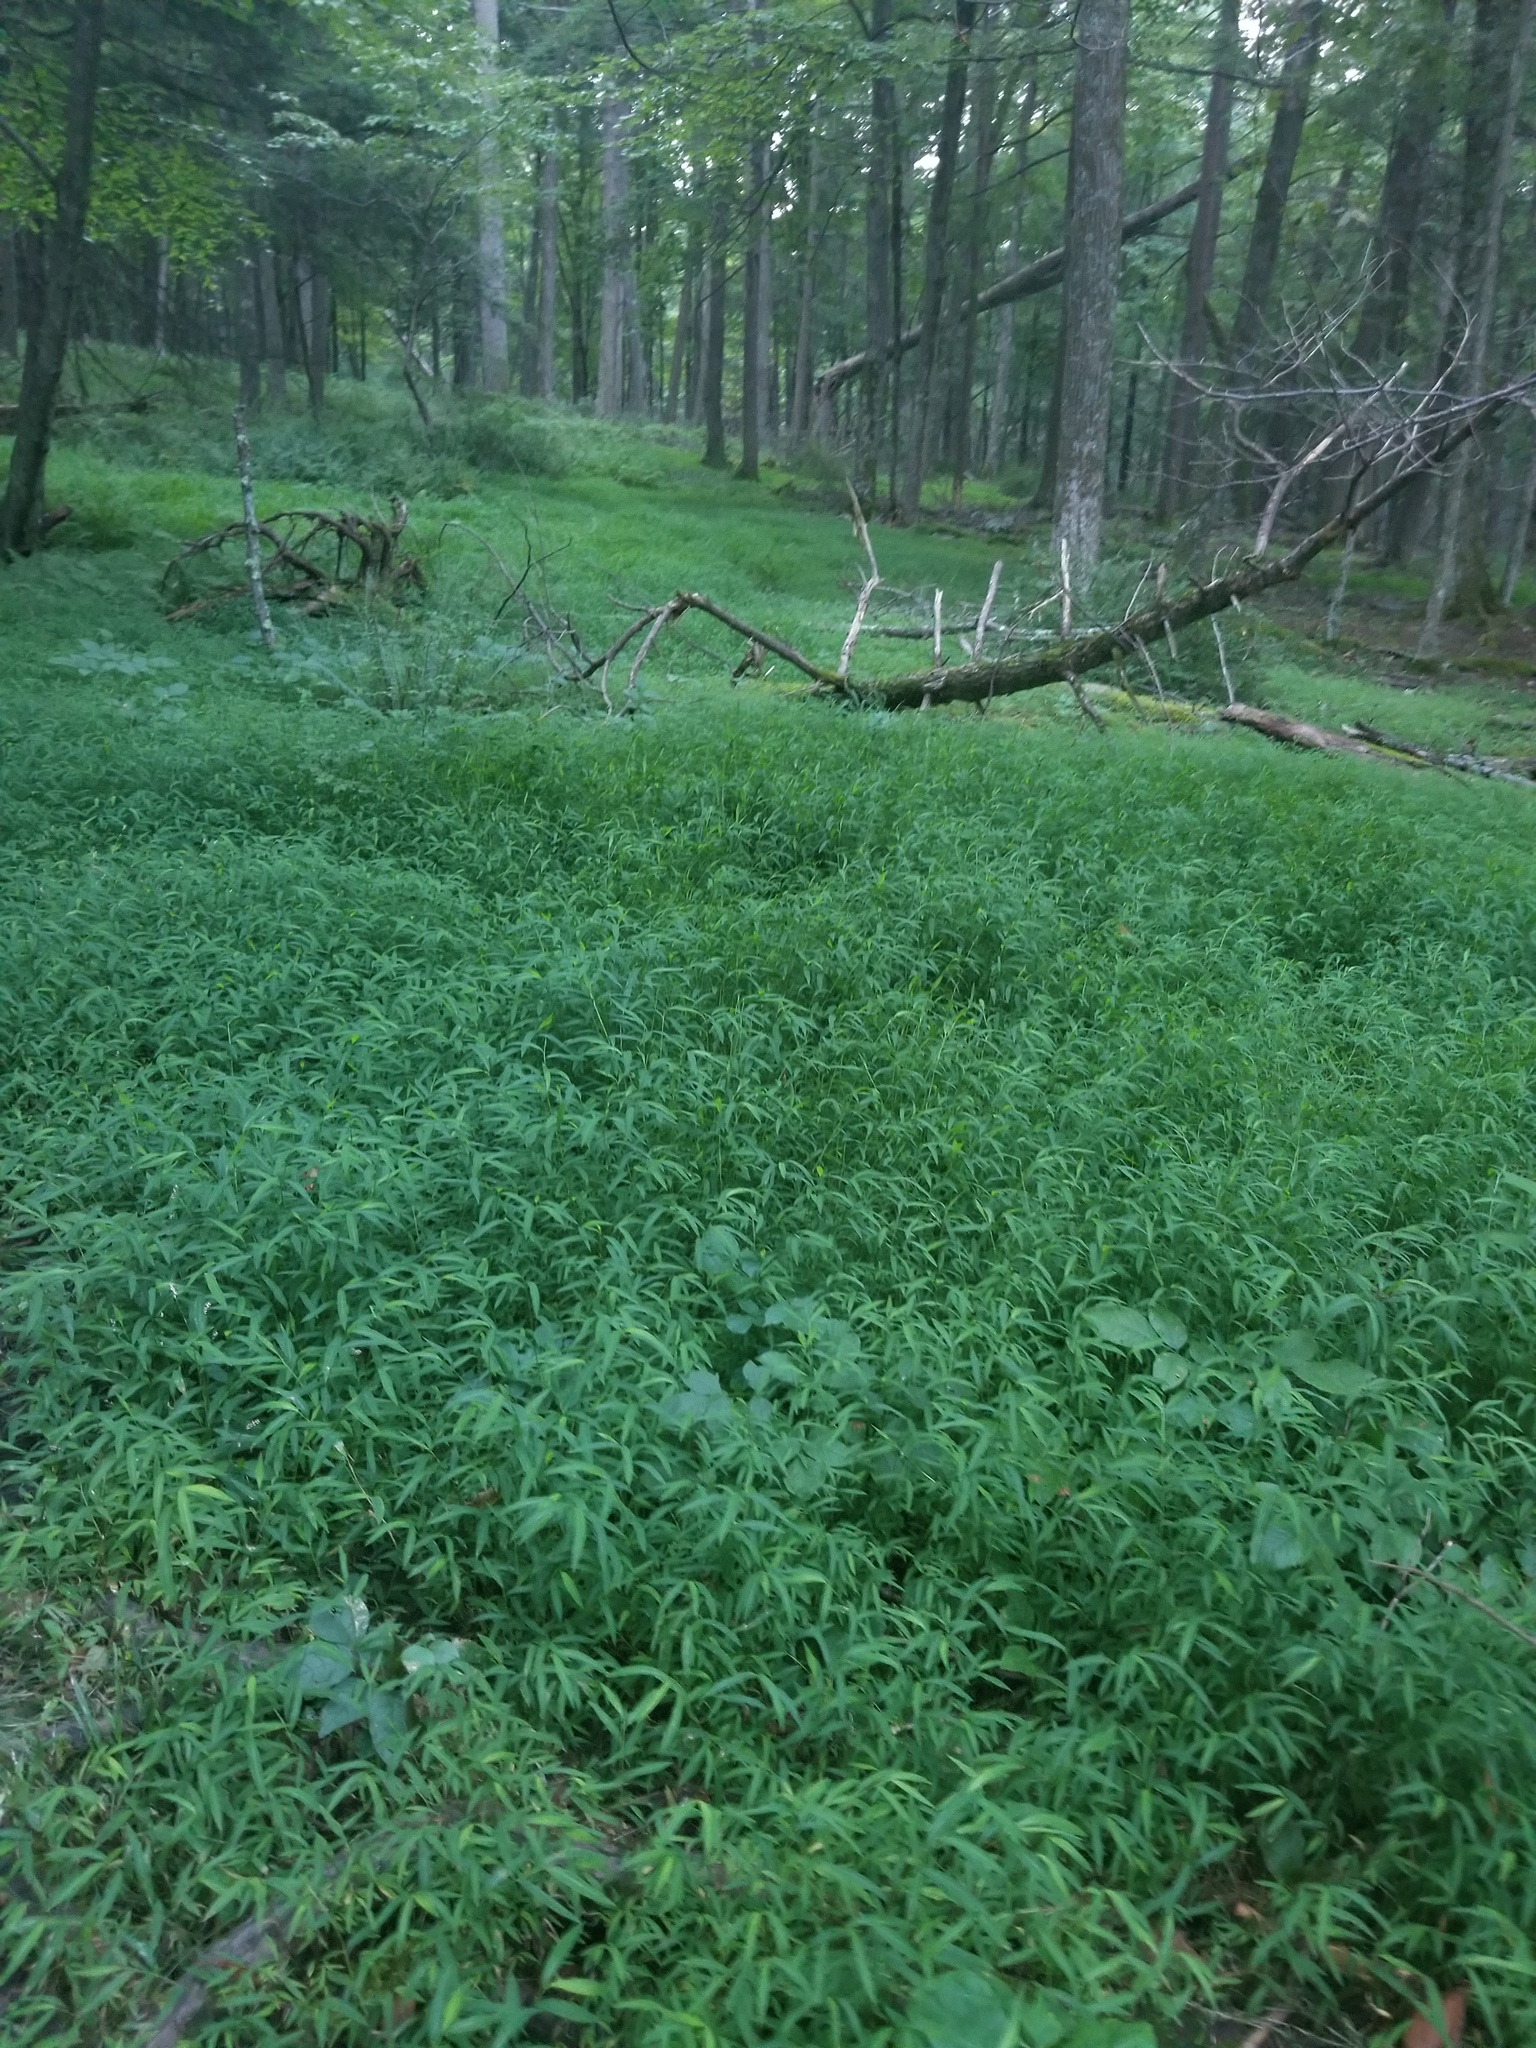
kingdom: Plantae
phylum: Tracheophyta
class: Liliopsida
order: Poales
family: Poaceae
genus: Microstegium
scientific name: Microstegium vimineum
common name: Japanese stiltgrass
